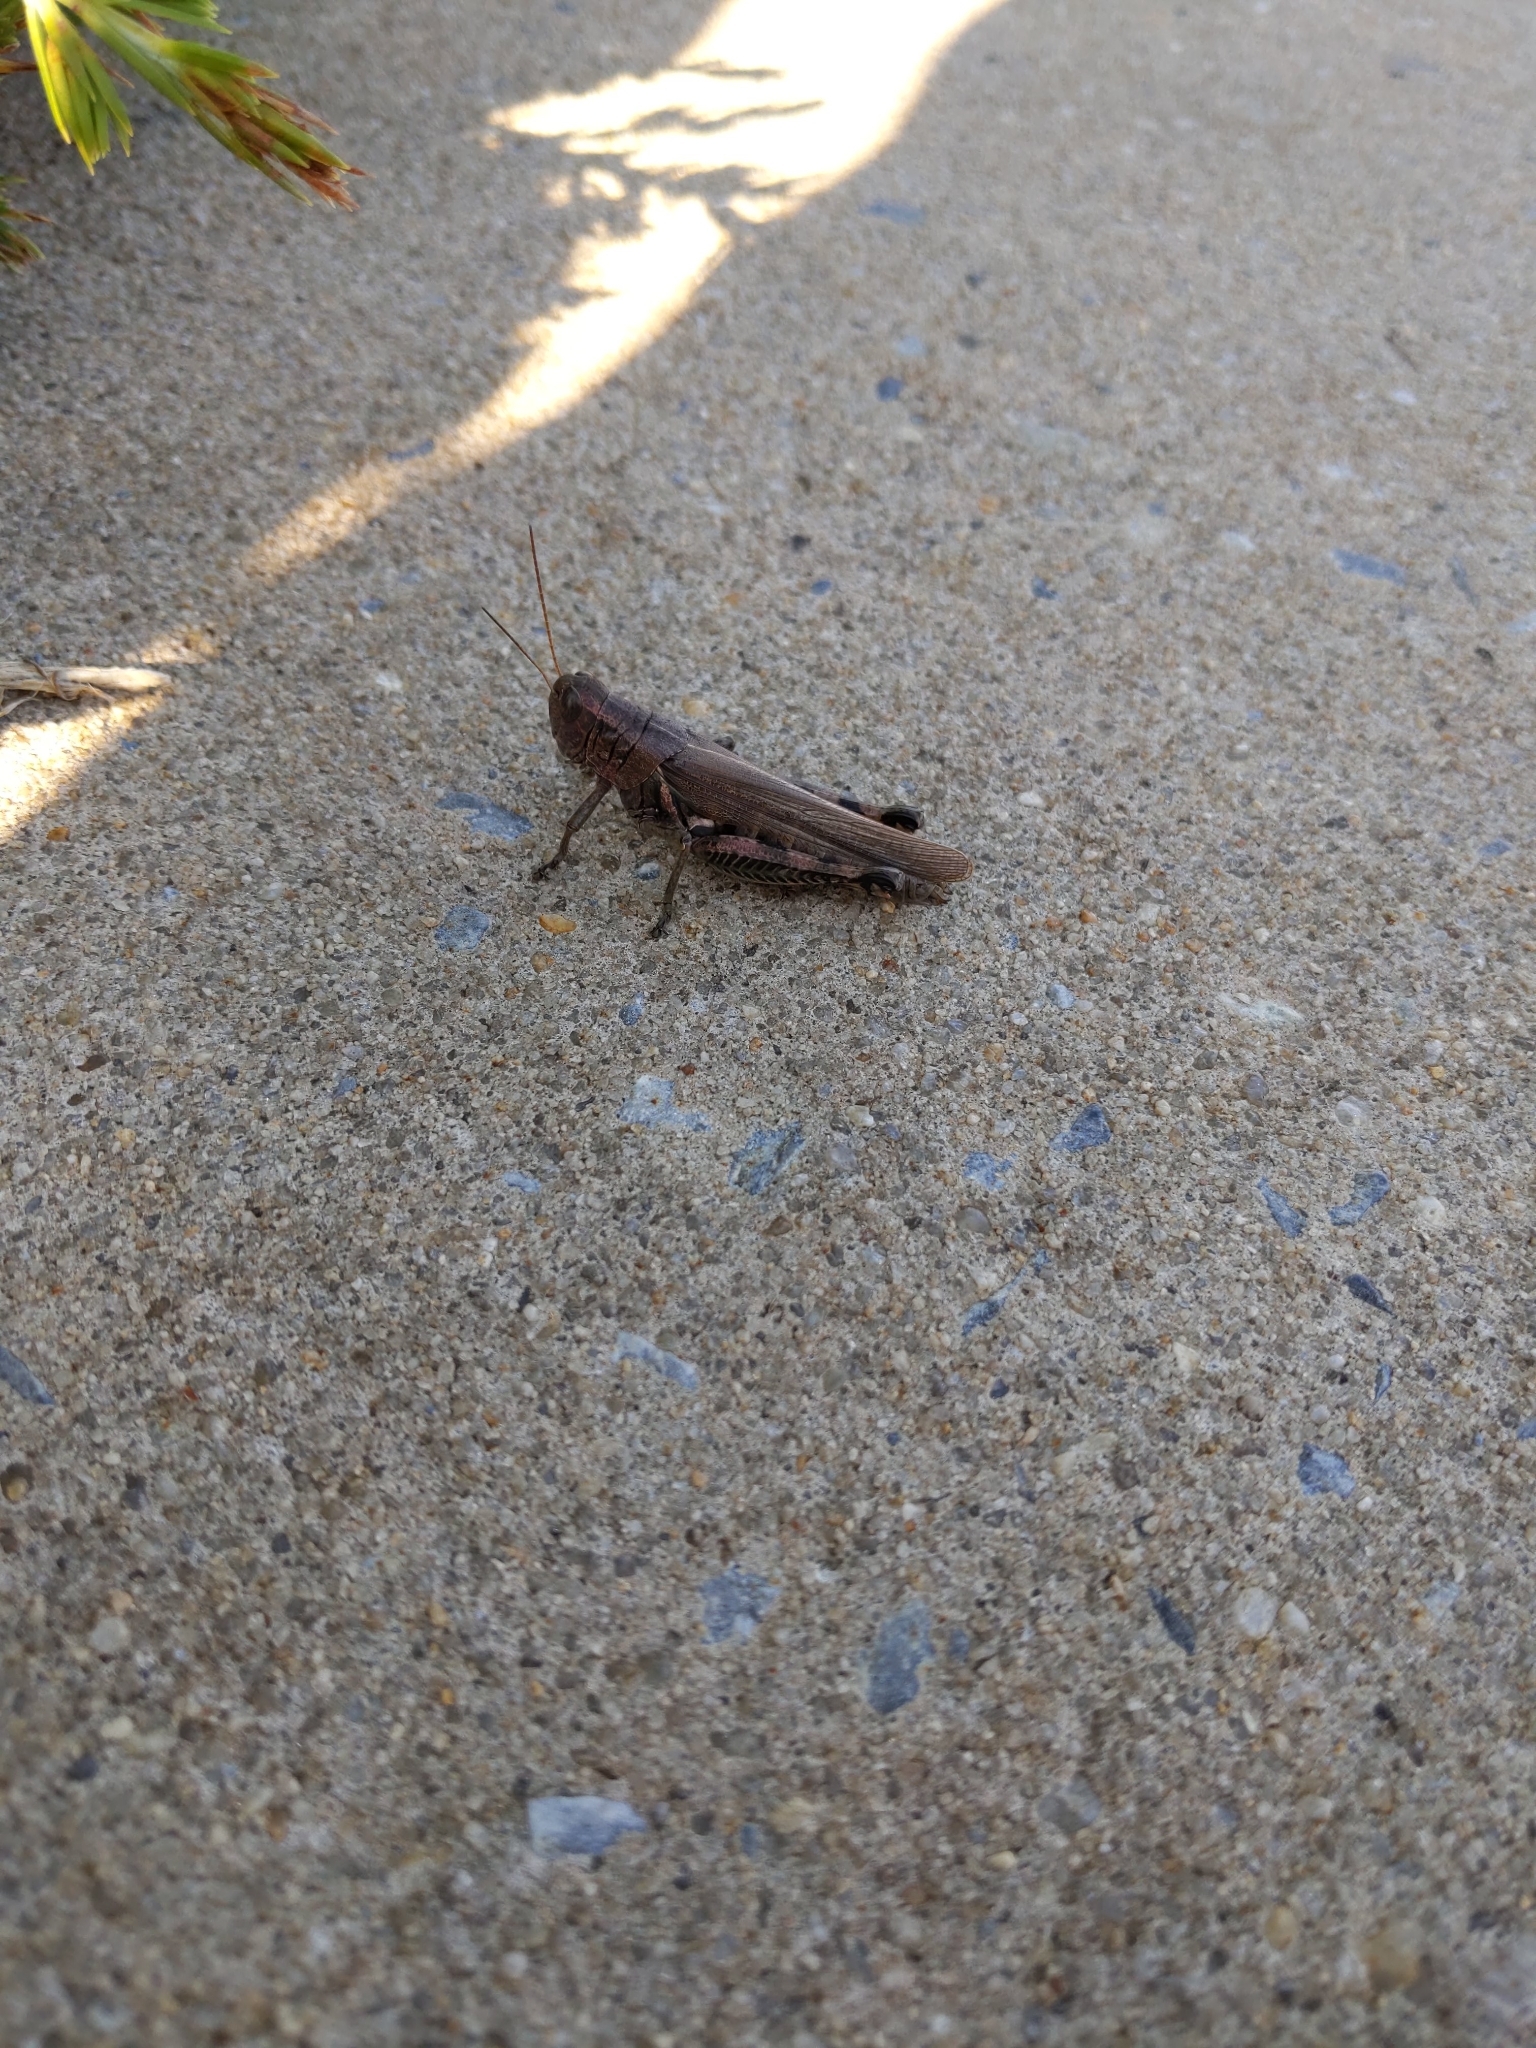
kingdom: Animalia
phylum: Arthropoda
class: Insecta
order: Orthoptera
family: Acrididae
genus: Melanoplus
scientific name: Melanoplus differentialis
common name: Differential grasshopper
